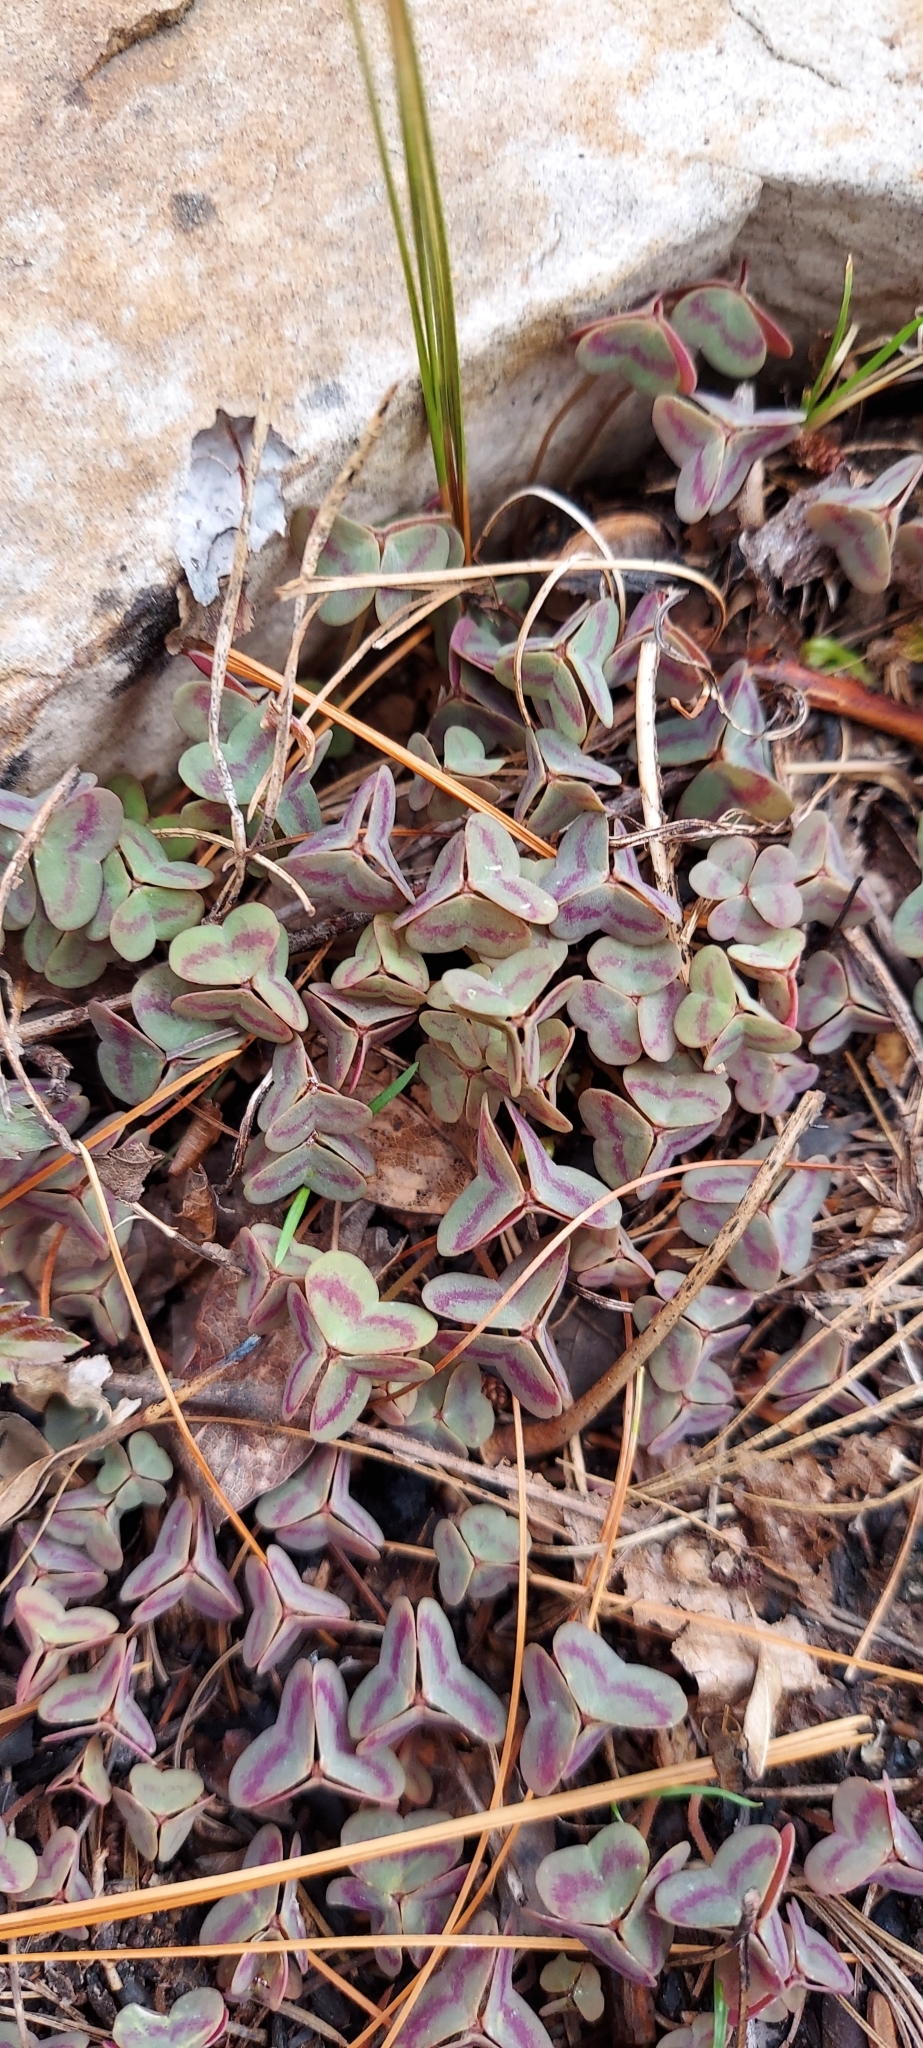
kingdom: Plantae
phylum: Tracheophyta
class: Magnoliopsida
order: Oxalidales
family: Oxalidaceae
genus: Oxalis
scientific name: Oxalis violacea
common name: Violet wood-sorrel
